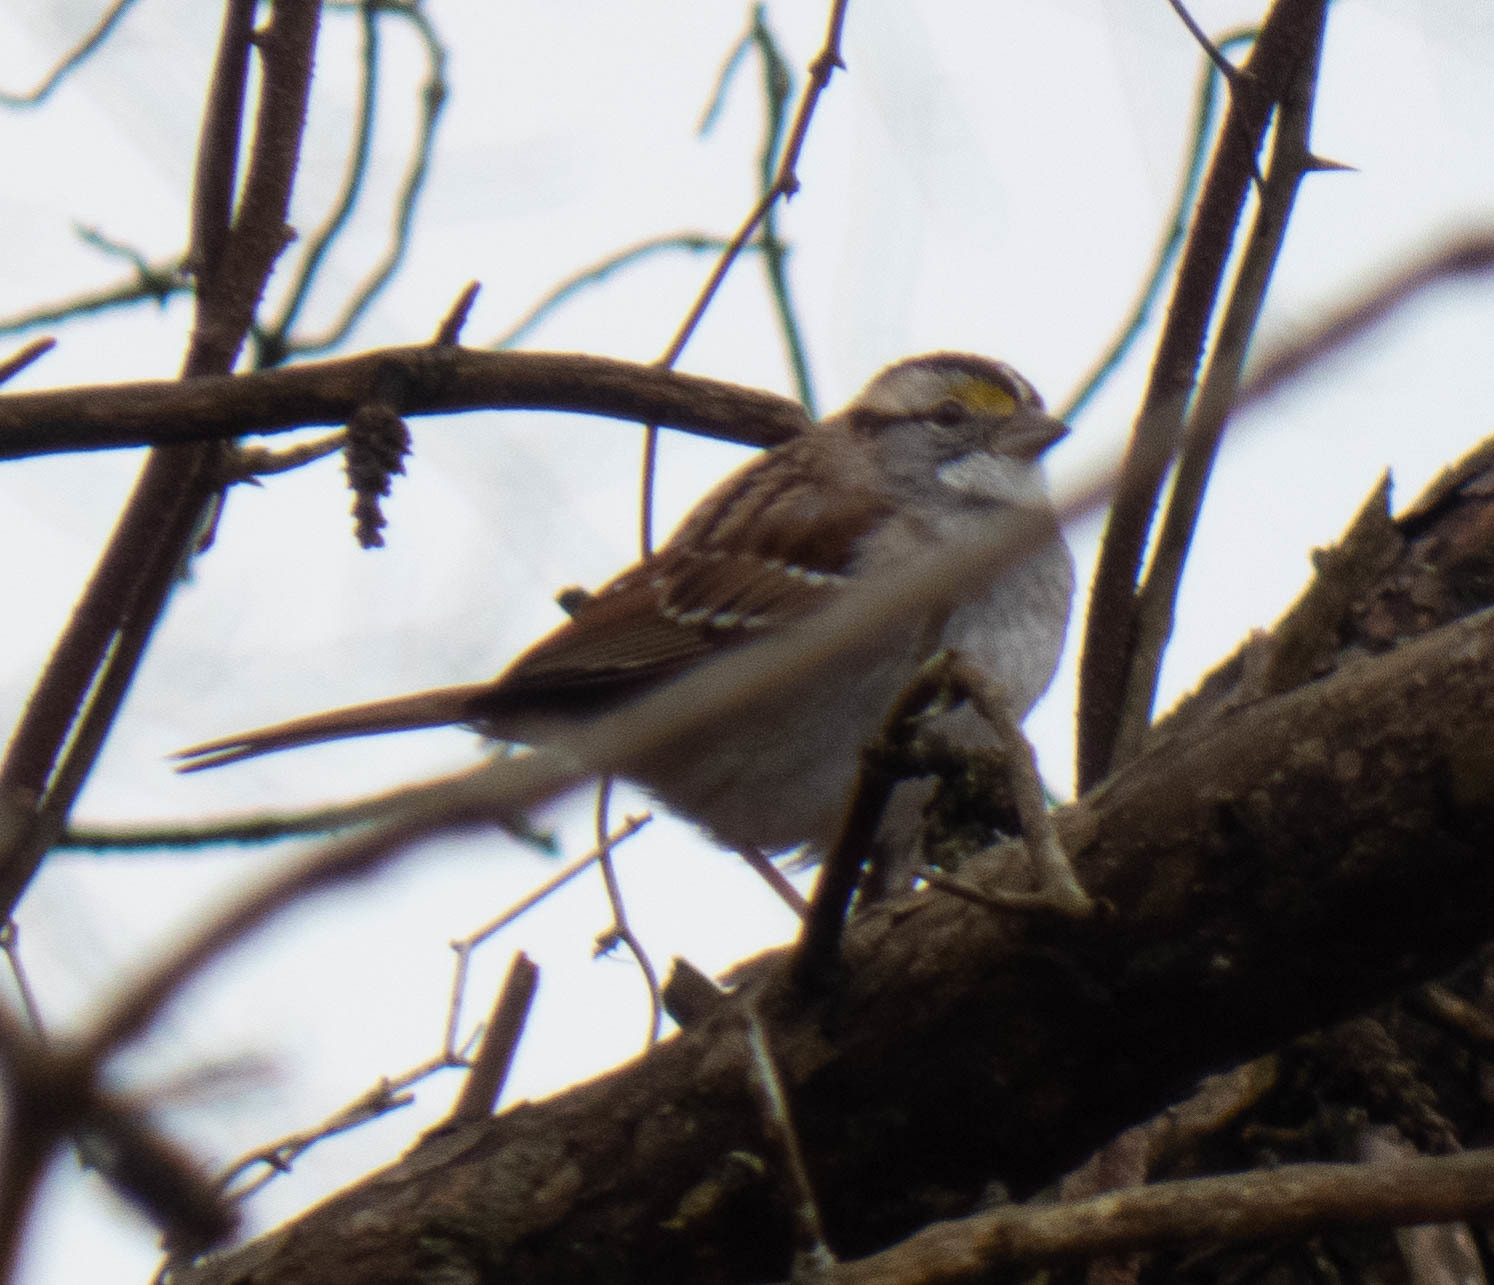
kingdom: Animalia
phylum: Chordata
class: Aves
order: Passeriformes
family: Passerellidae
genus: Zonotrichia
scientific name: Zonotrichia albicollis
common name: White-throated sparrow
